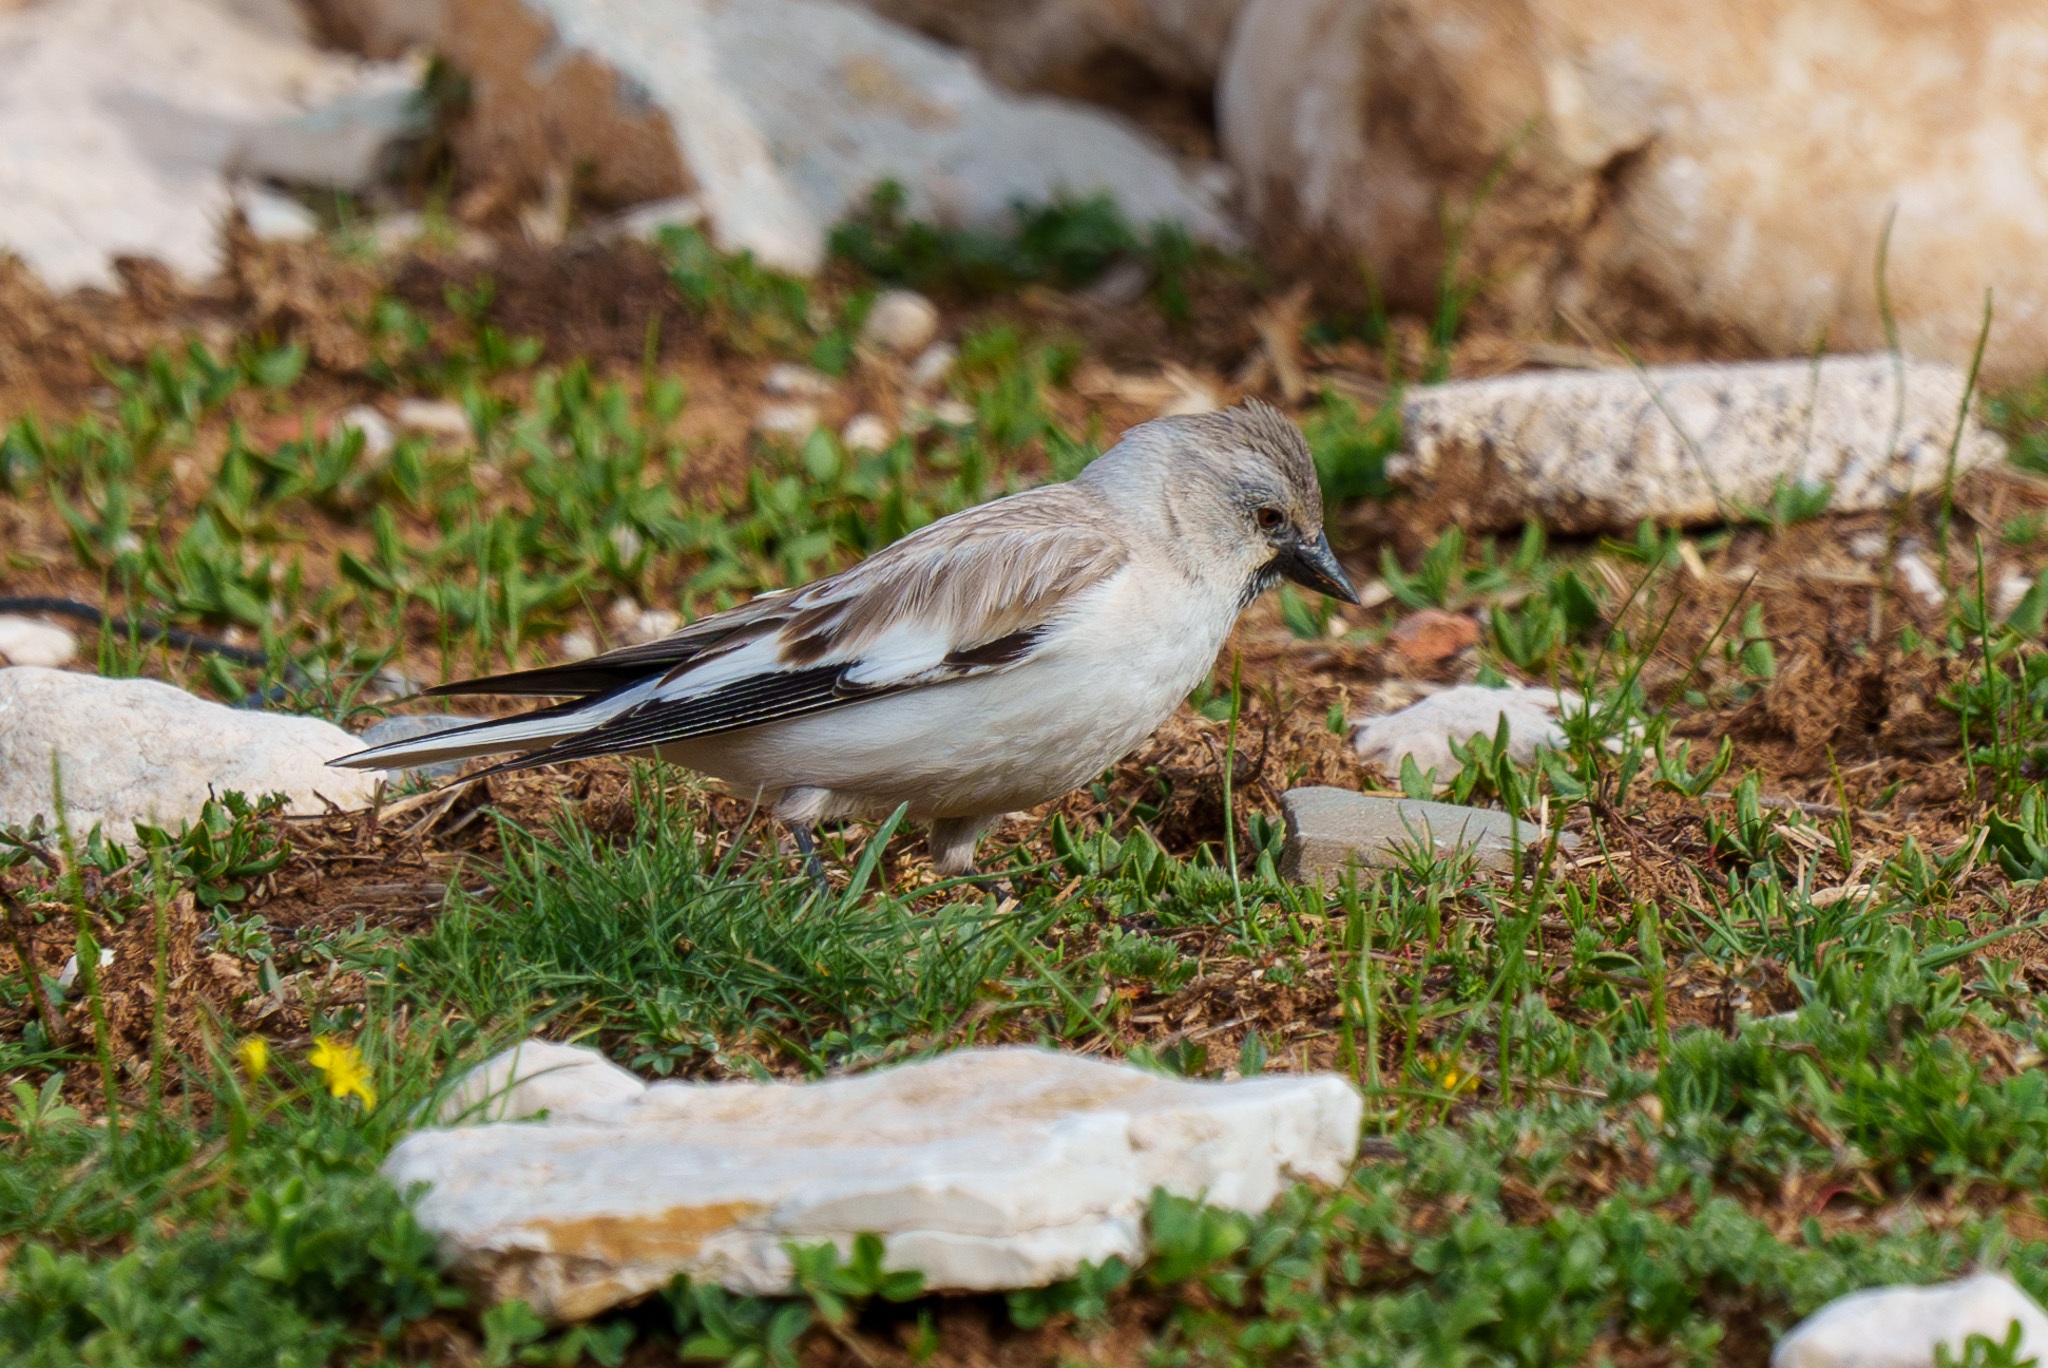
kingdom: Animalia
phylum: Chordata
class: Aves
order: Passeriformes
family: Passeridae
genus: Montifringilla
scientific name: Montifringilla nivalis
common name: White-winged snowfinch
